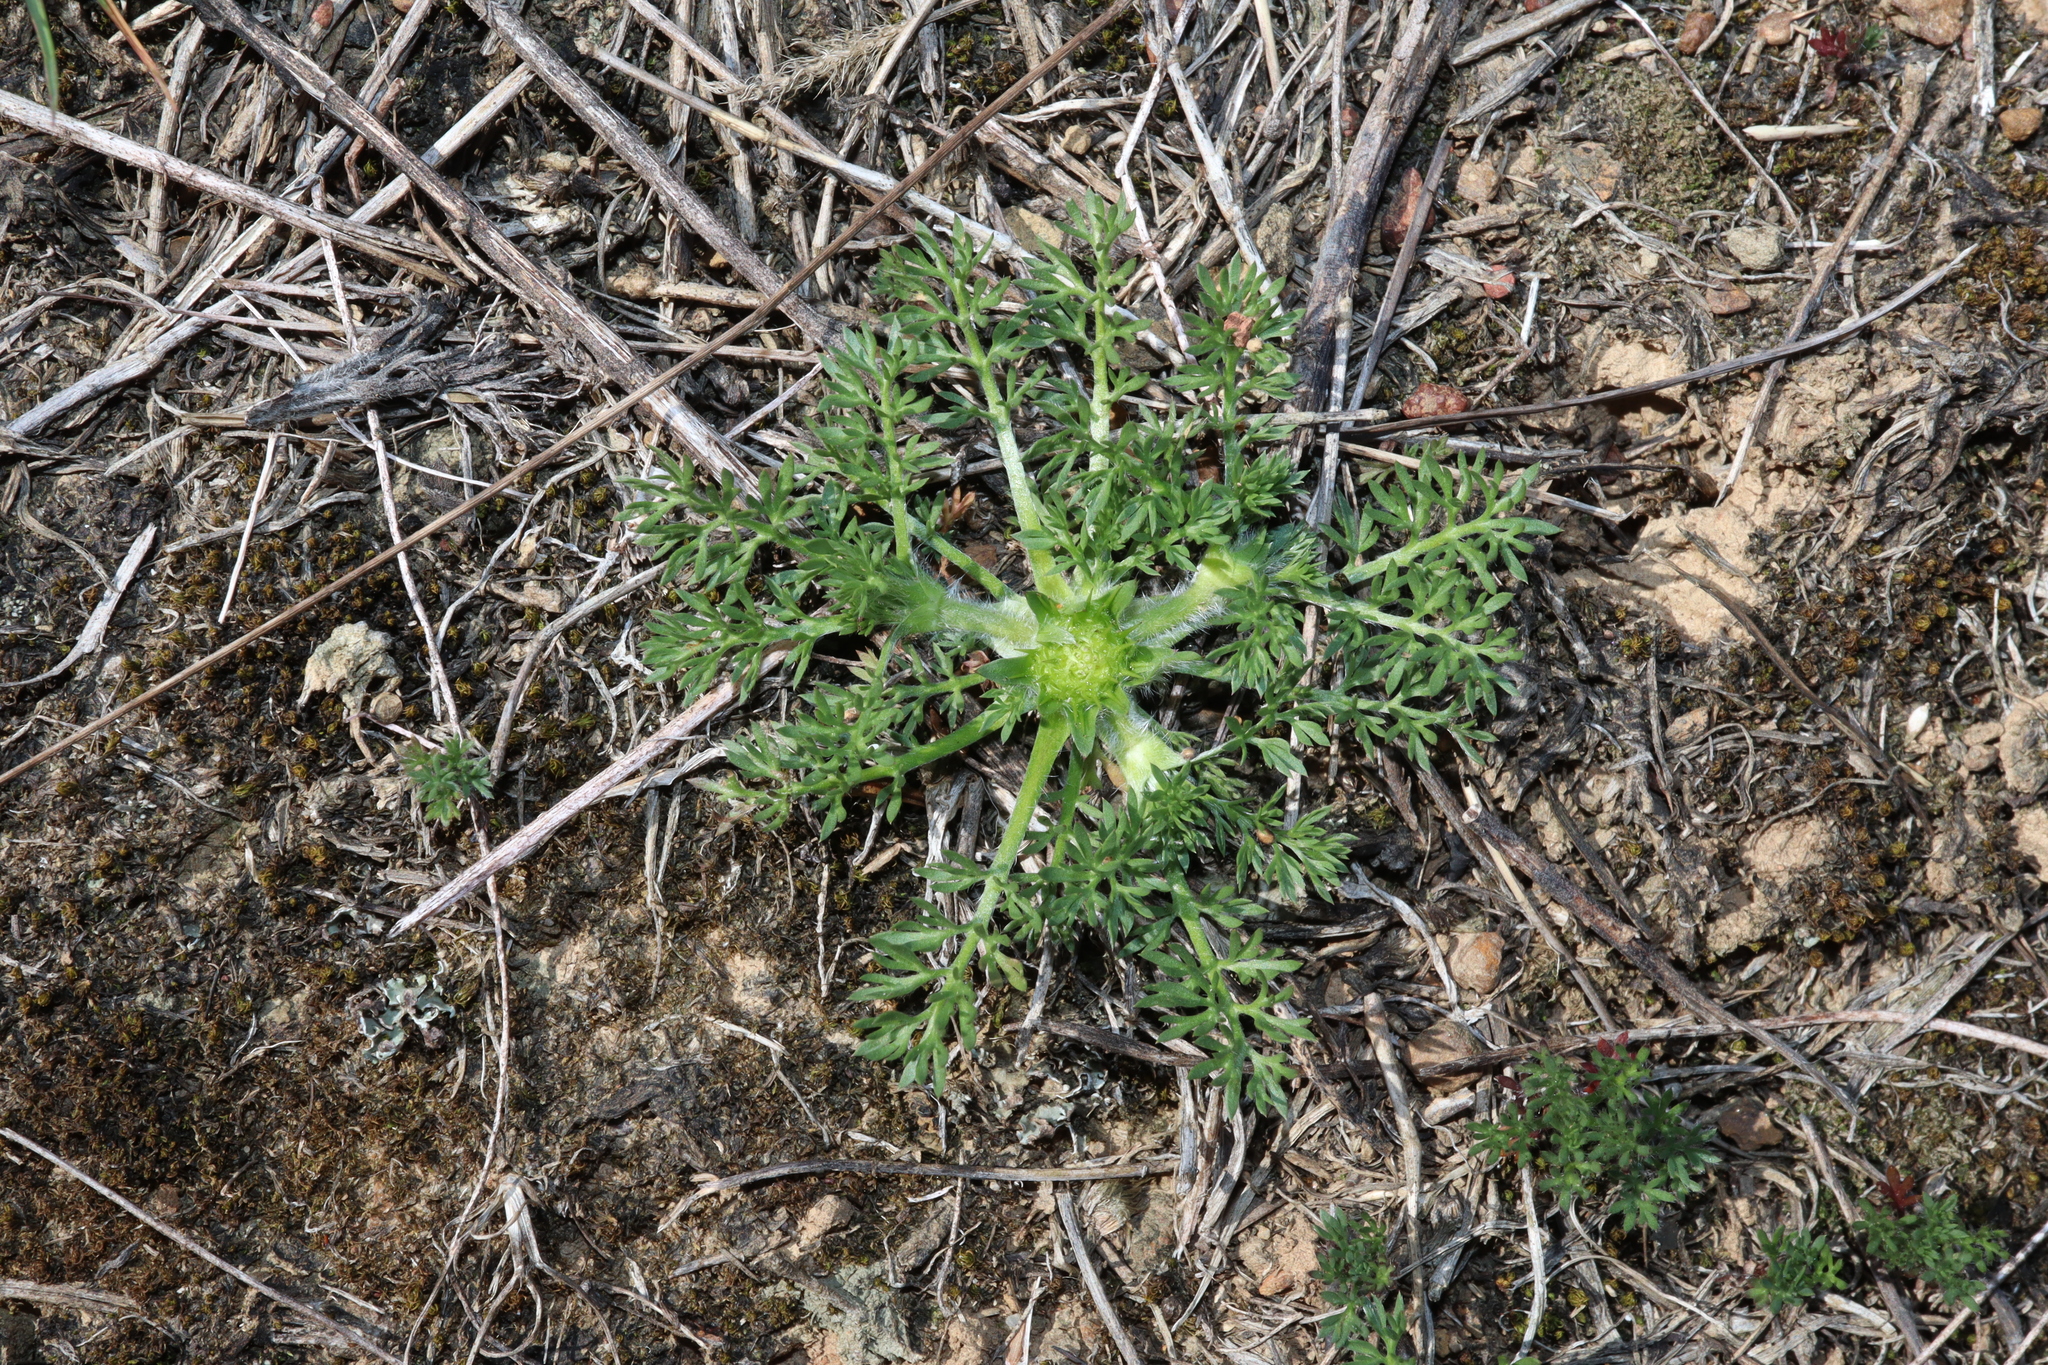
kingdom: Plantae
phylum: Tracheophyta
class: Magnoliopsida
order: Asterales
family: Asteraceae
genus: Soliva
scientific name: Soliva sessilis
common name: Field burrweed
